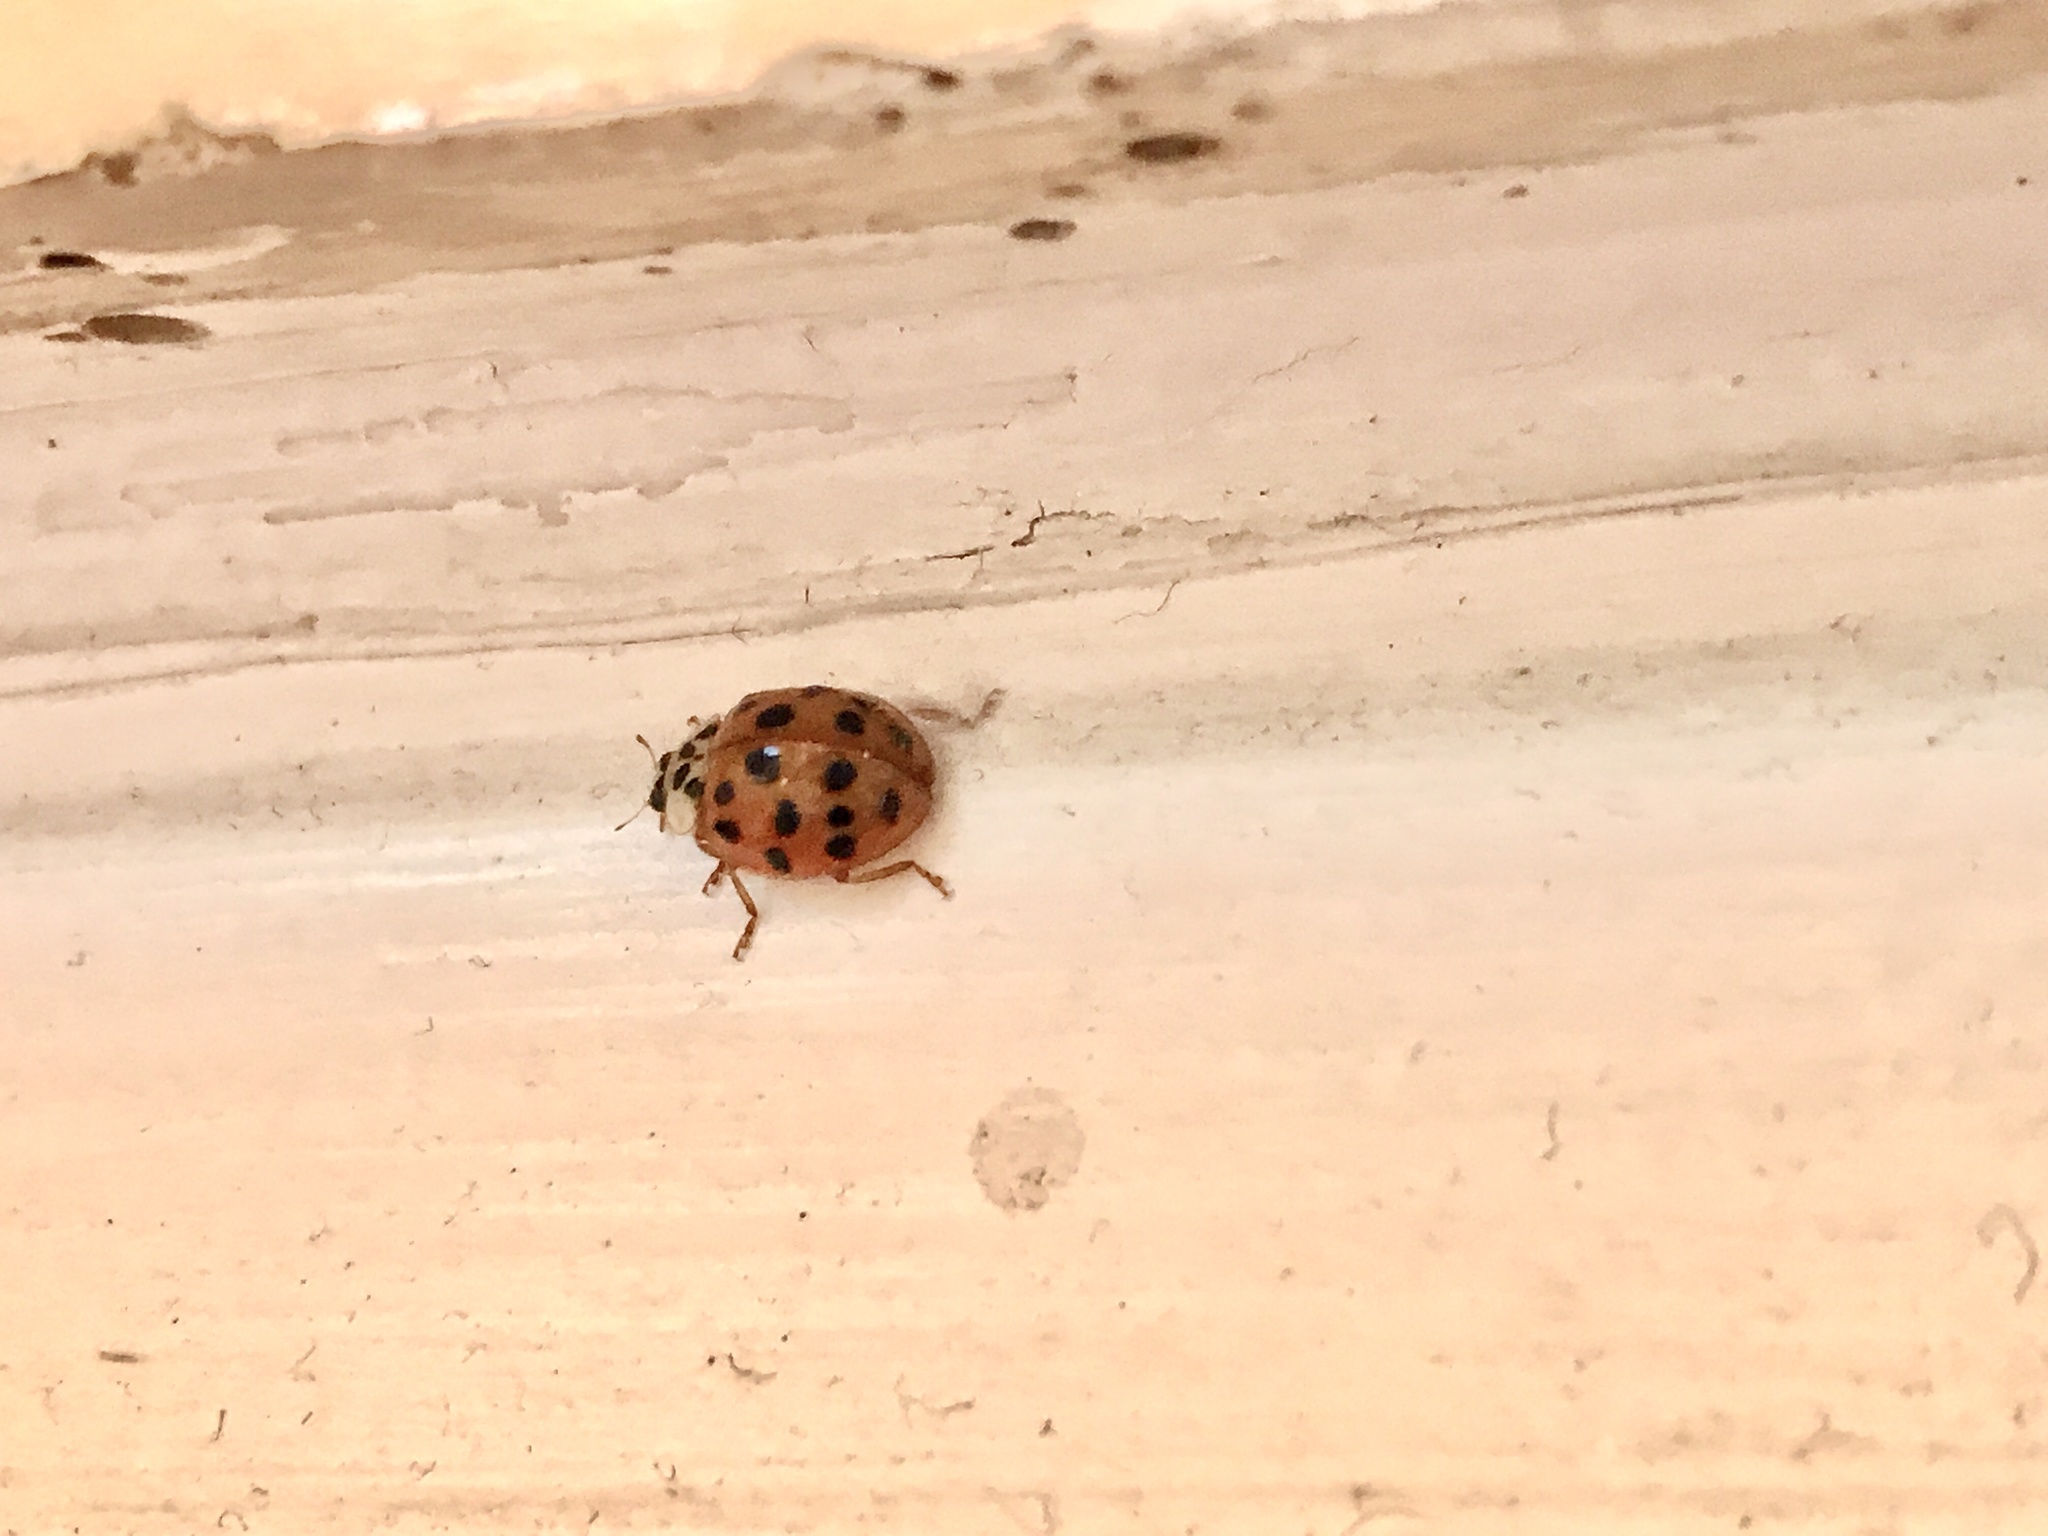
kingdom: Animalia
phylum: Arthropoda
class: Insecta
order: Coleoptera
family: Coccinellidae
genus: Harmonia
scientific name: Harmonia axyridis
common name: Harlequin ladybird
